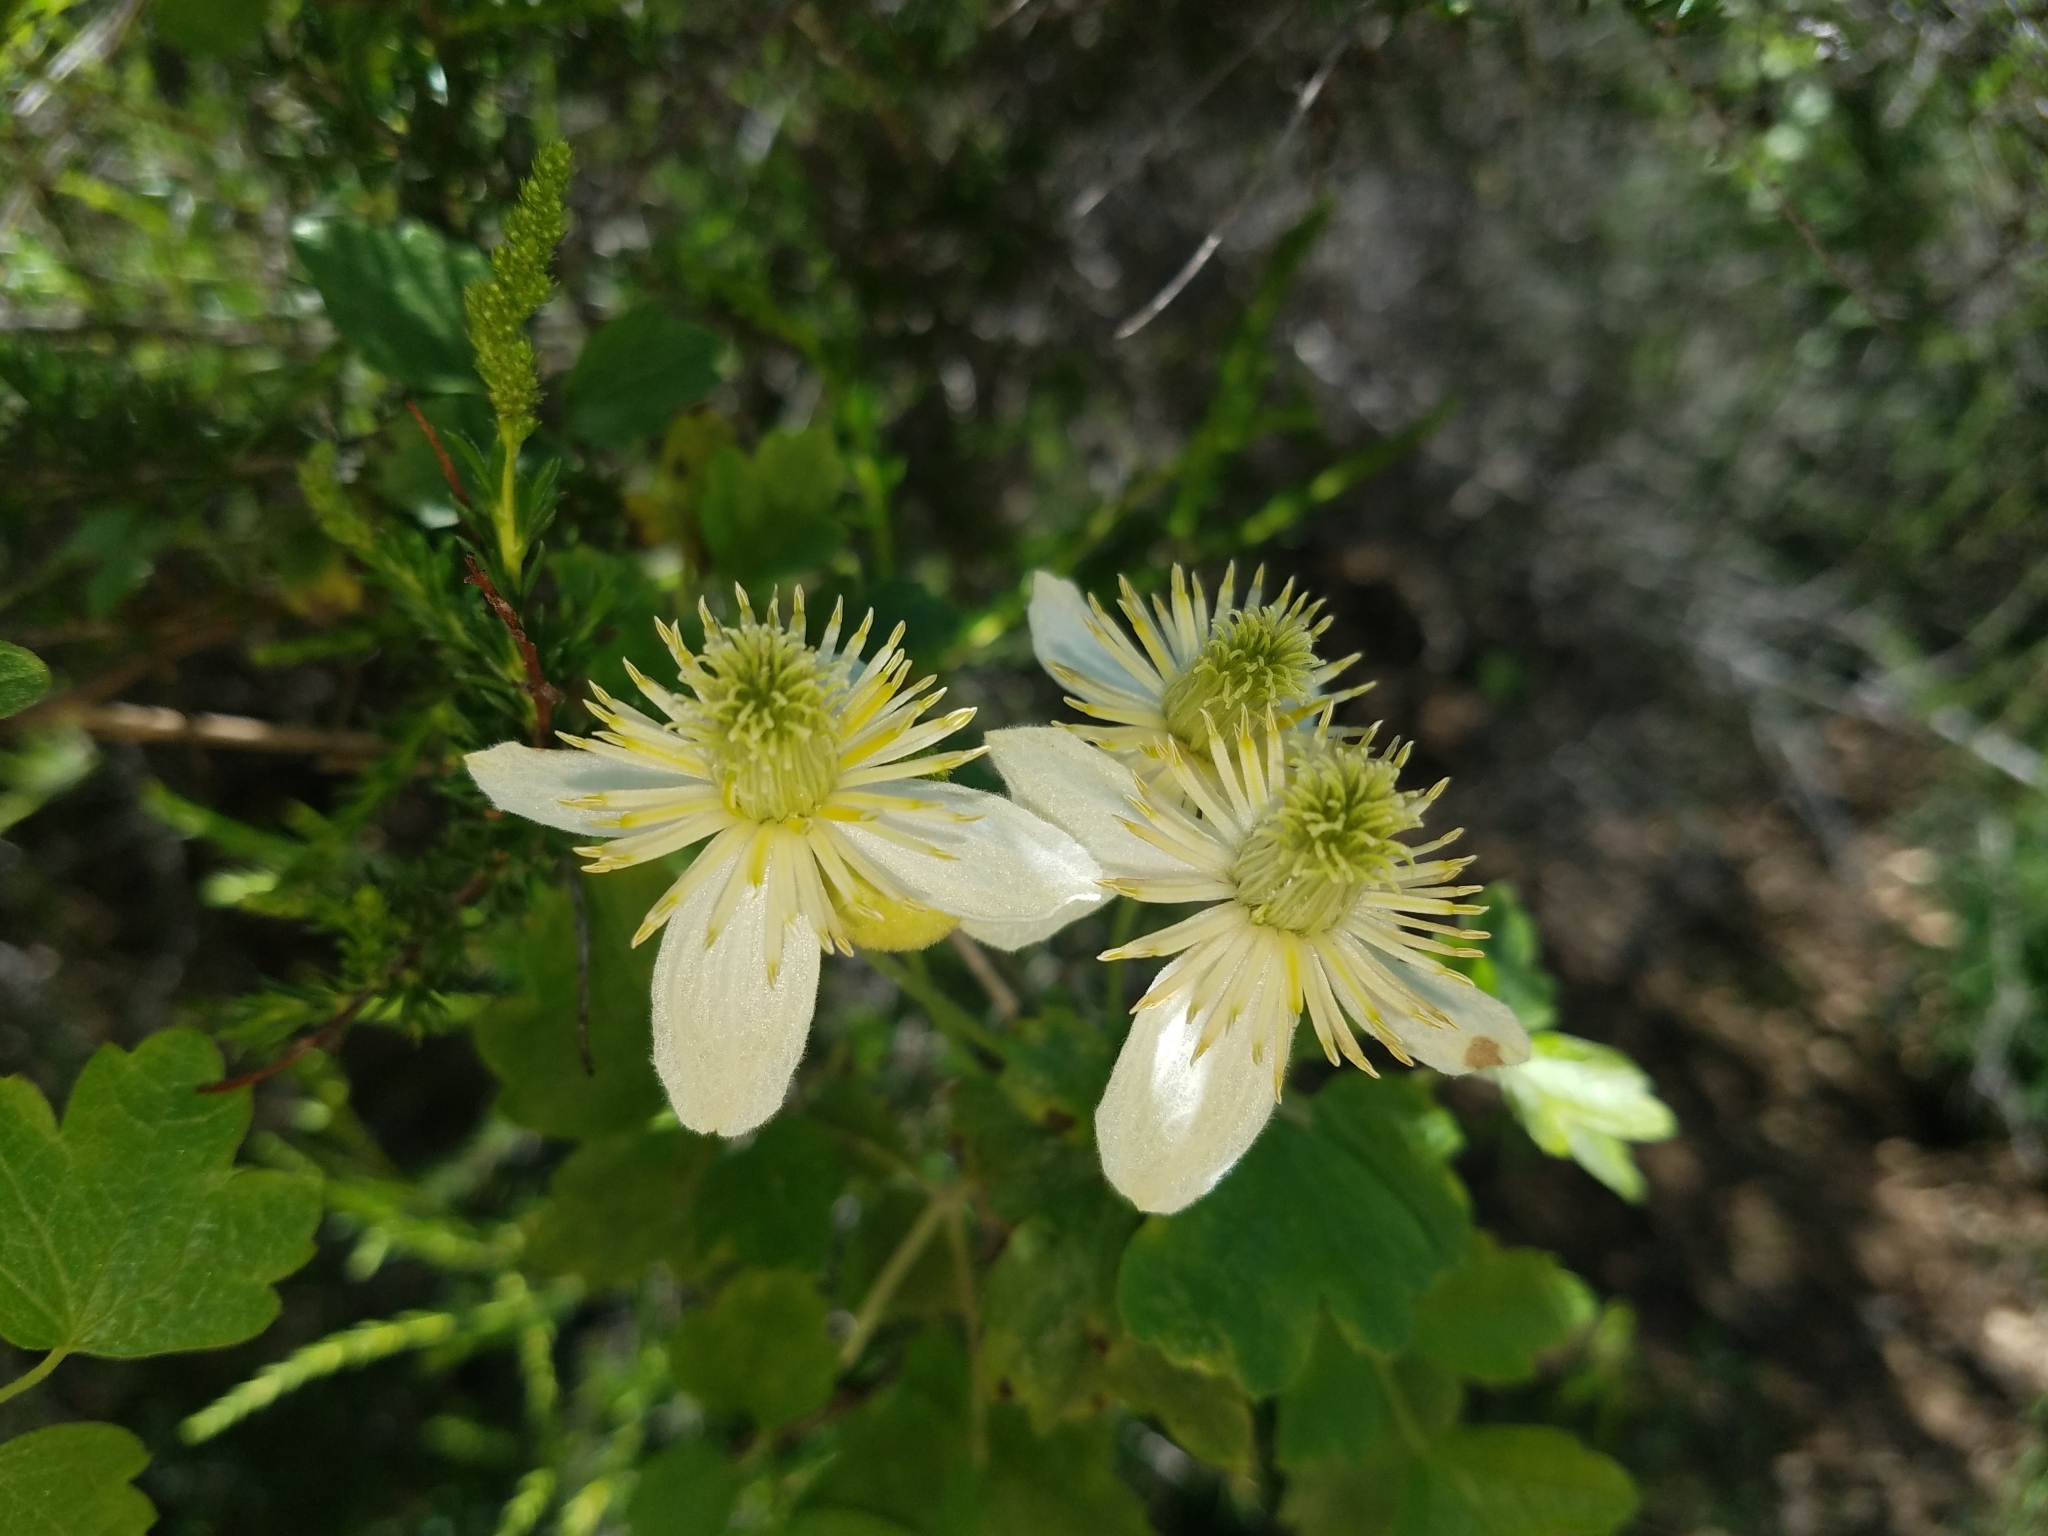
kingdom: Plantae
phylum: Tracheophyta
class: Magnoliopsida
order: Ranunculales
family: Ranunculaceae
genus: Clematis
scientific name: Clematis lasiantha
